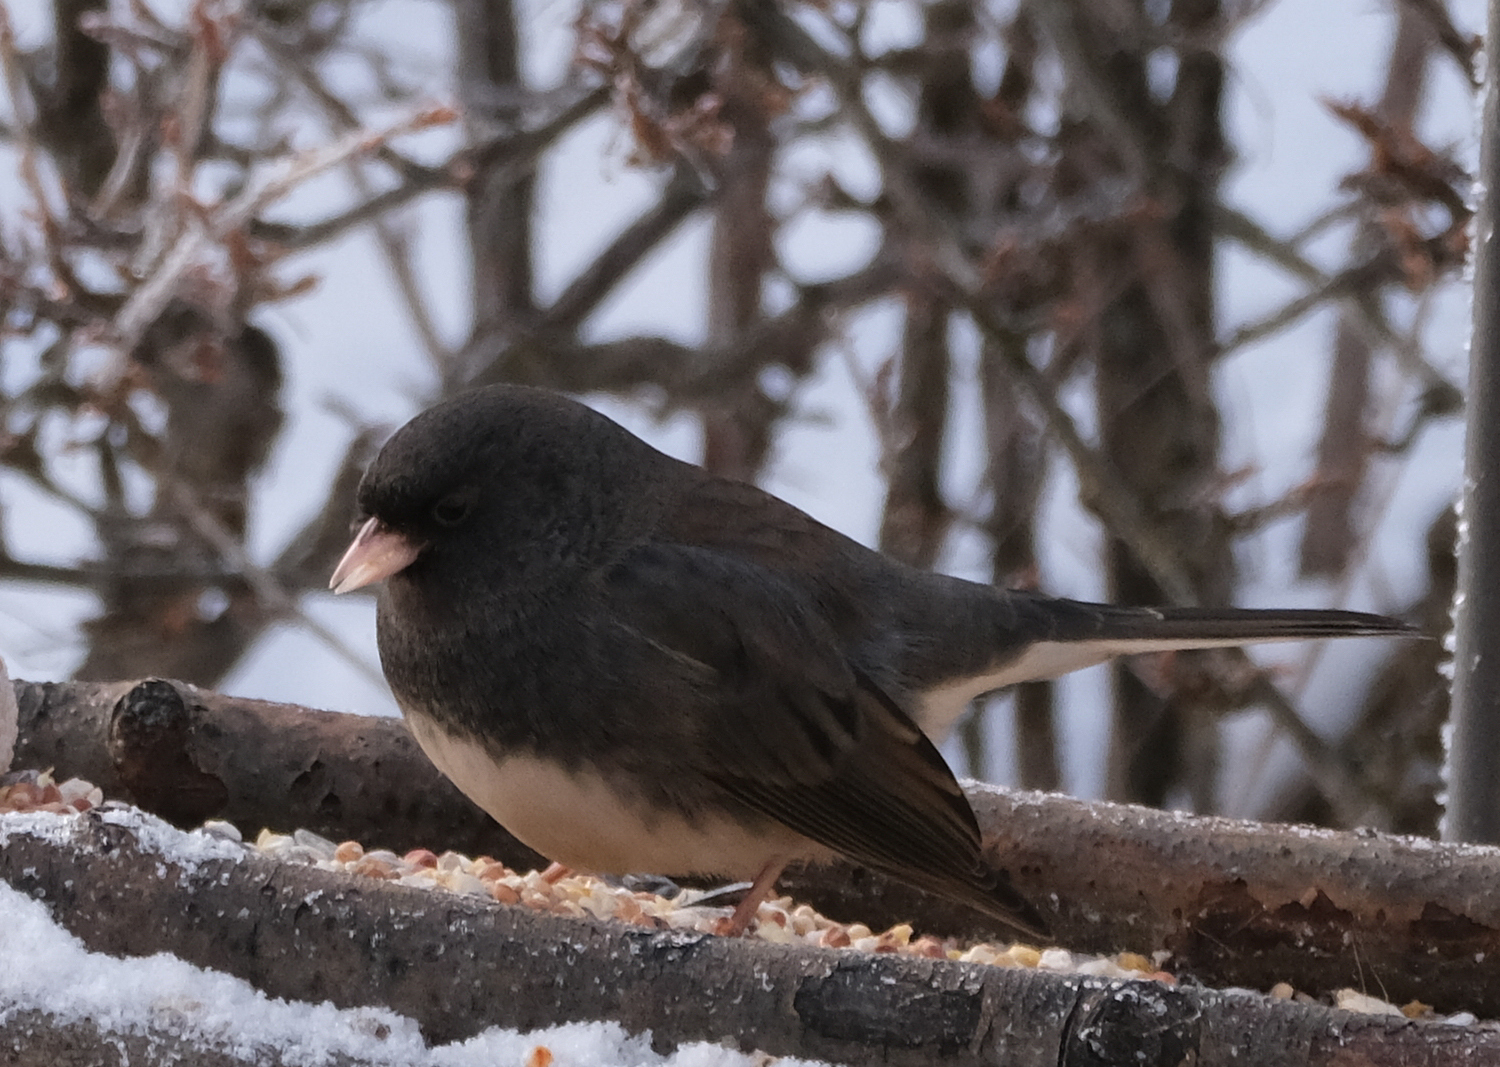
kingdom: Animalia
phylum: Chordata
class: Aves
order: Passeriformes
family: Passerellidae
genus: Junco
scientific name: Junco hyemalis
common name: Dark-eyed junco
